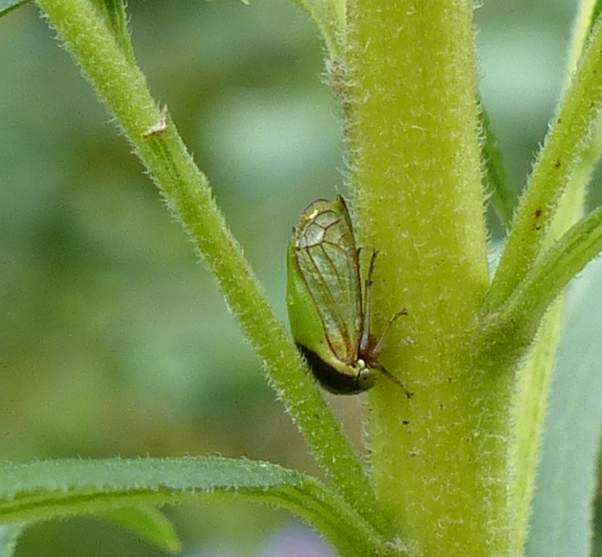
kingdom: Animalia
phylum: Arthropoda
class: Insecta
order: Hemiptera
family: Membracidae
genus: Acutalis
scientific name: Acutalis tartarea
